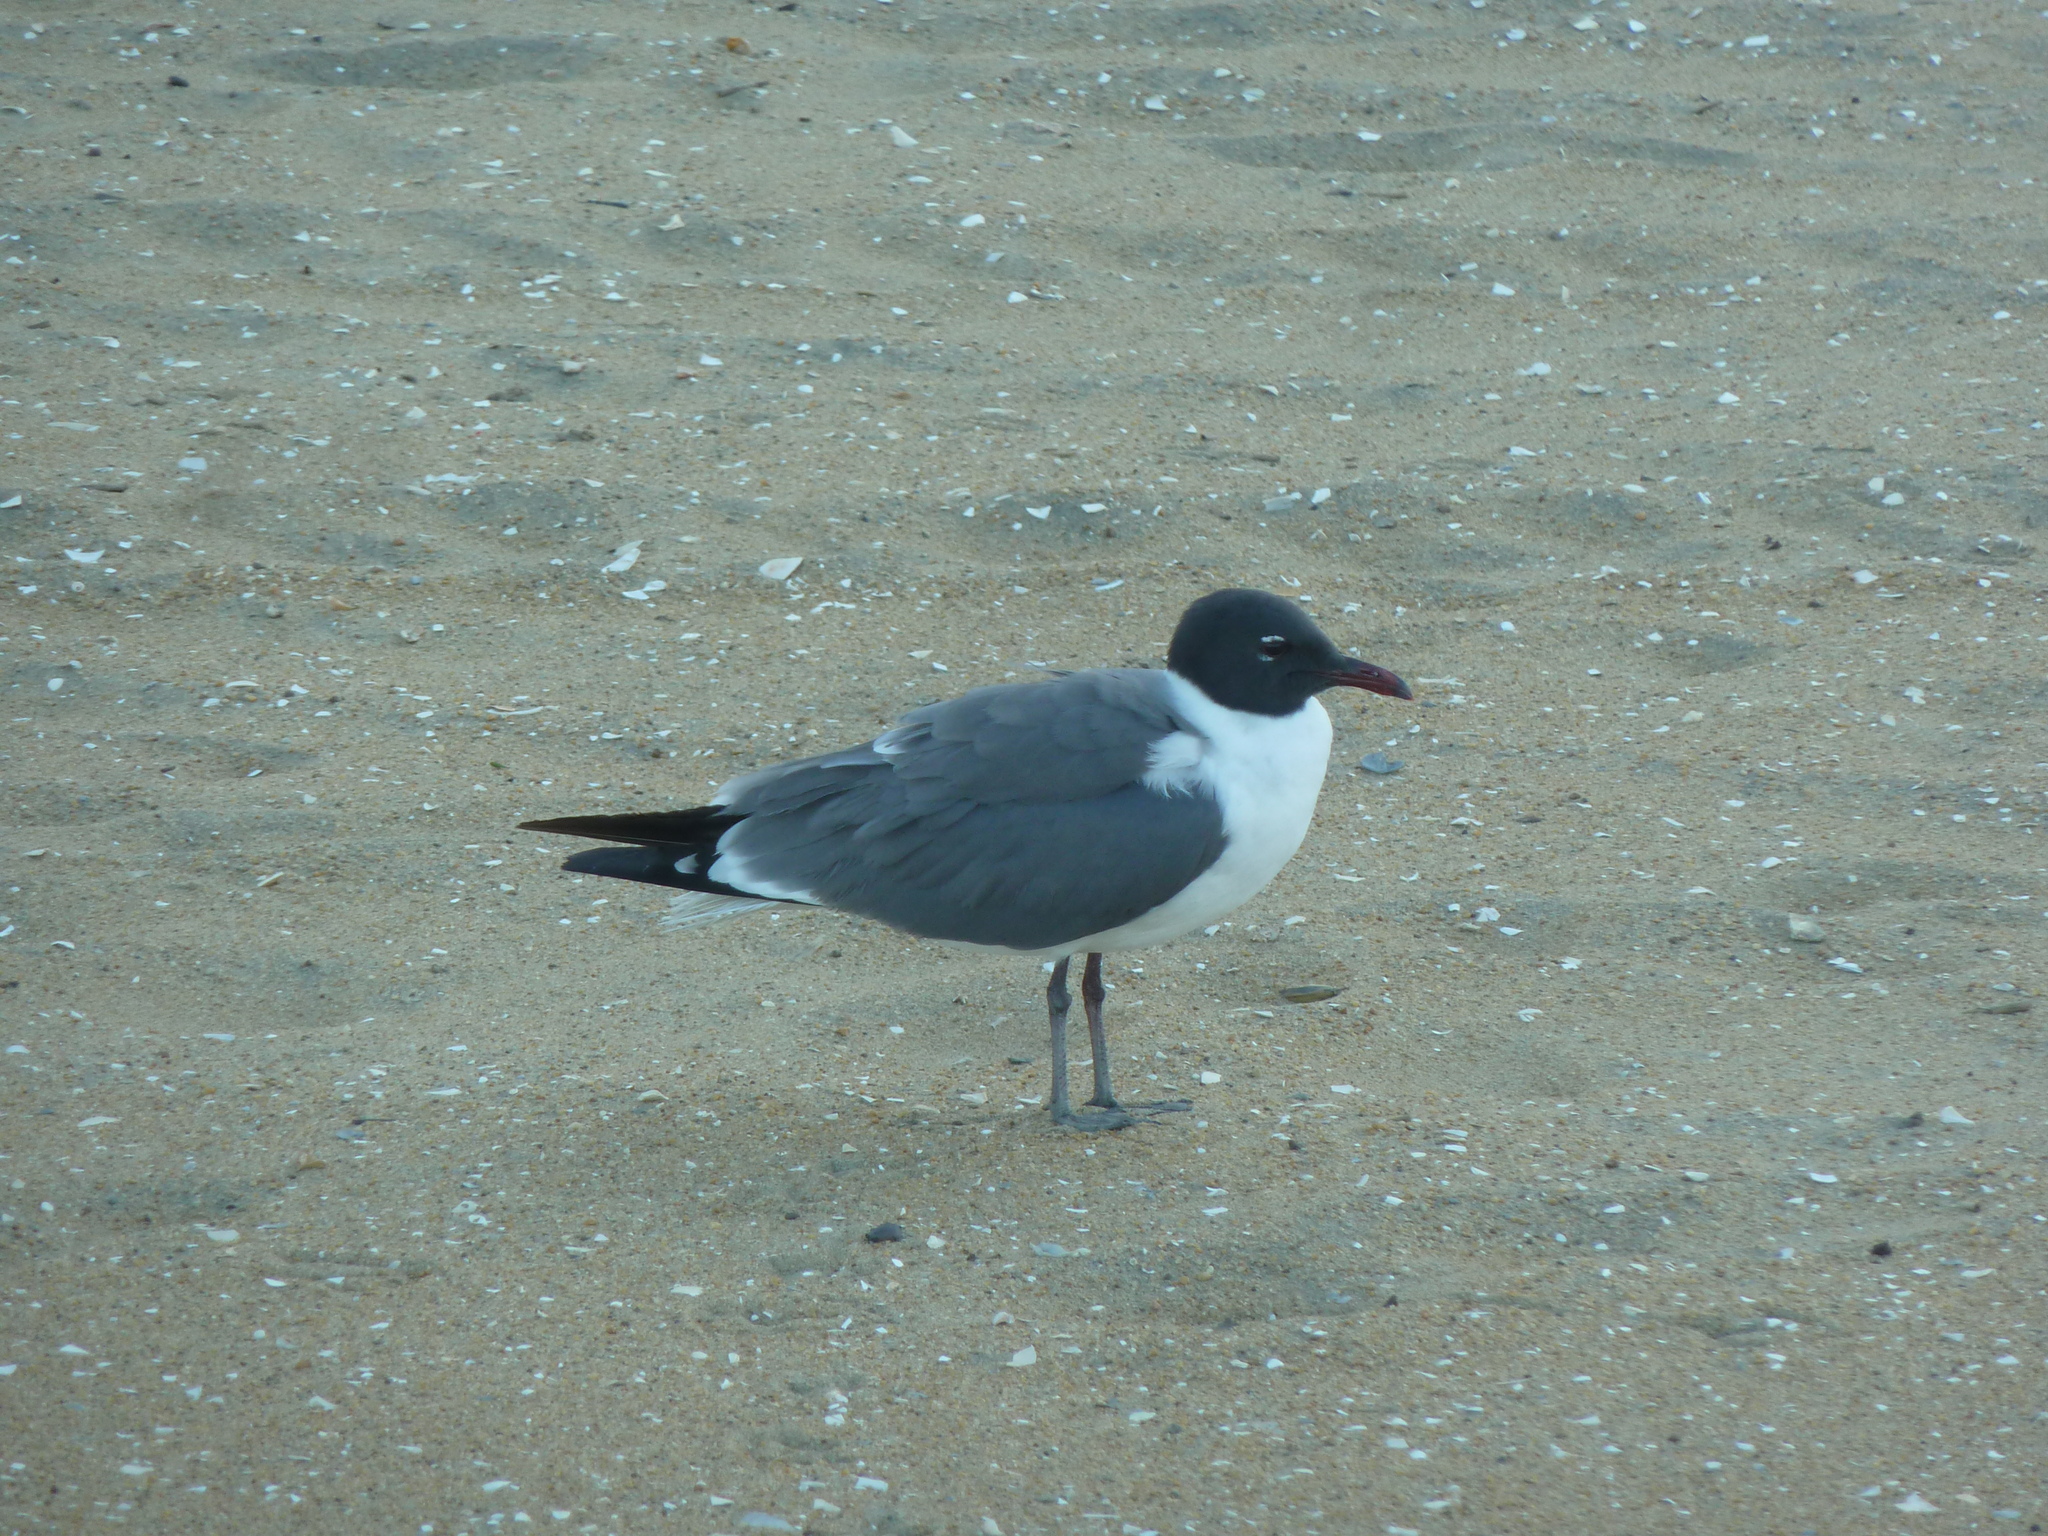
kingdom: Animalia
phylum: Chordata
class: Aves
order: Charadriiformes
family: Laridae
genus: Leucophaeus
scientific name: Leucophaeus atricilla
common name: Laughing gull
